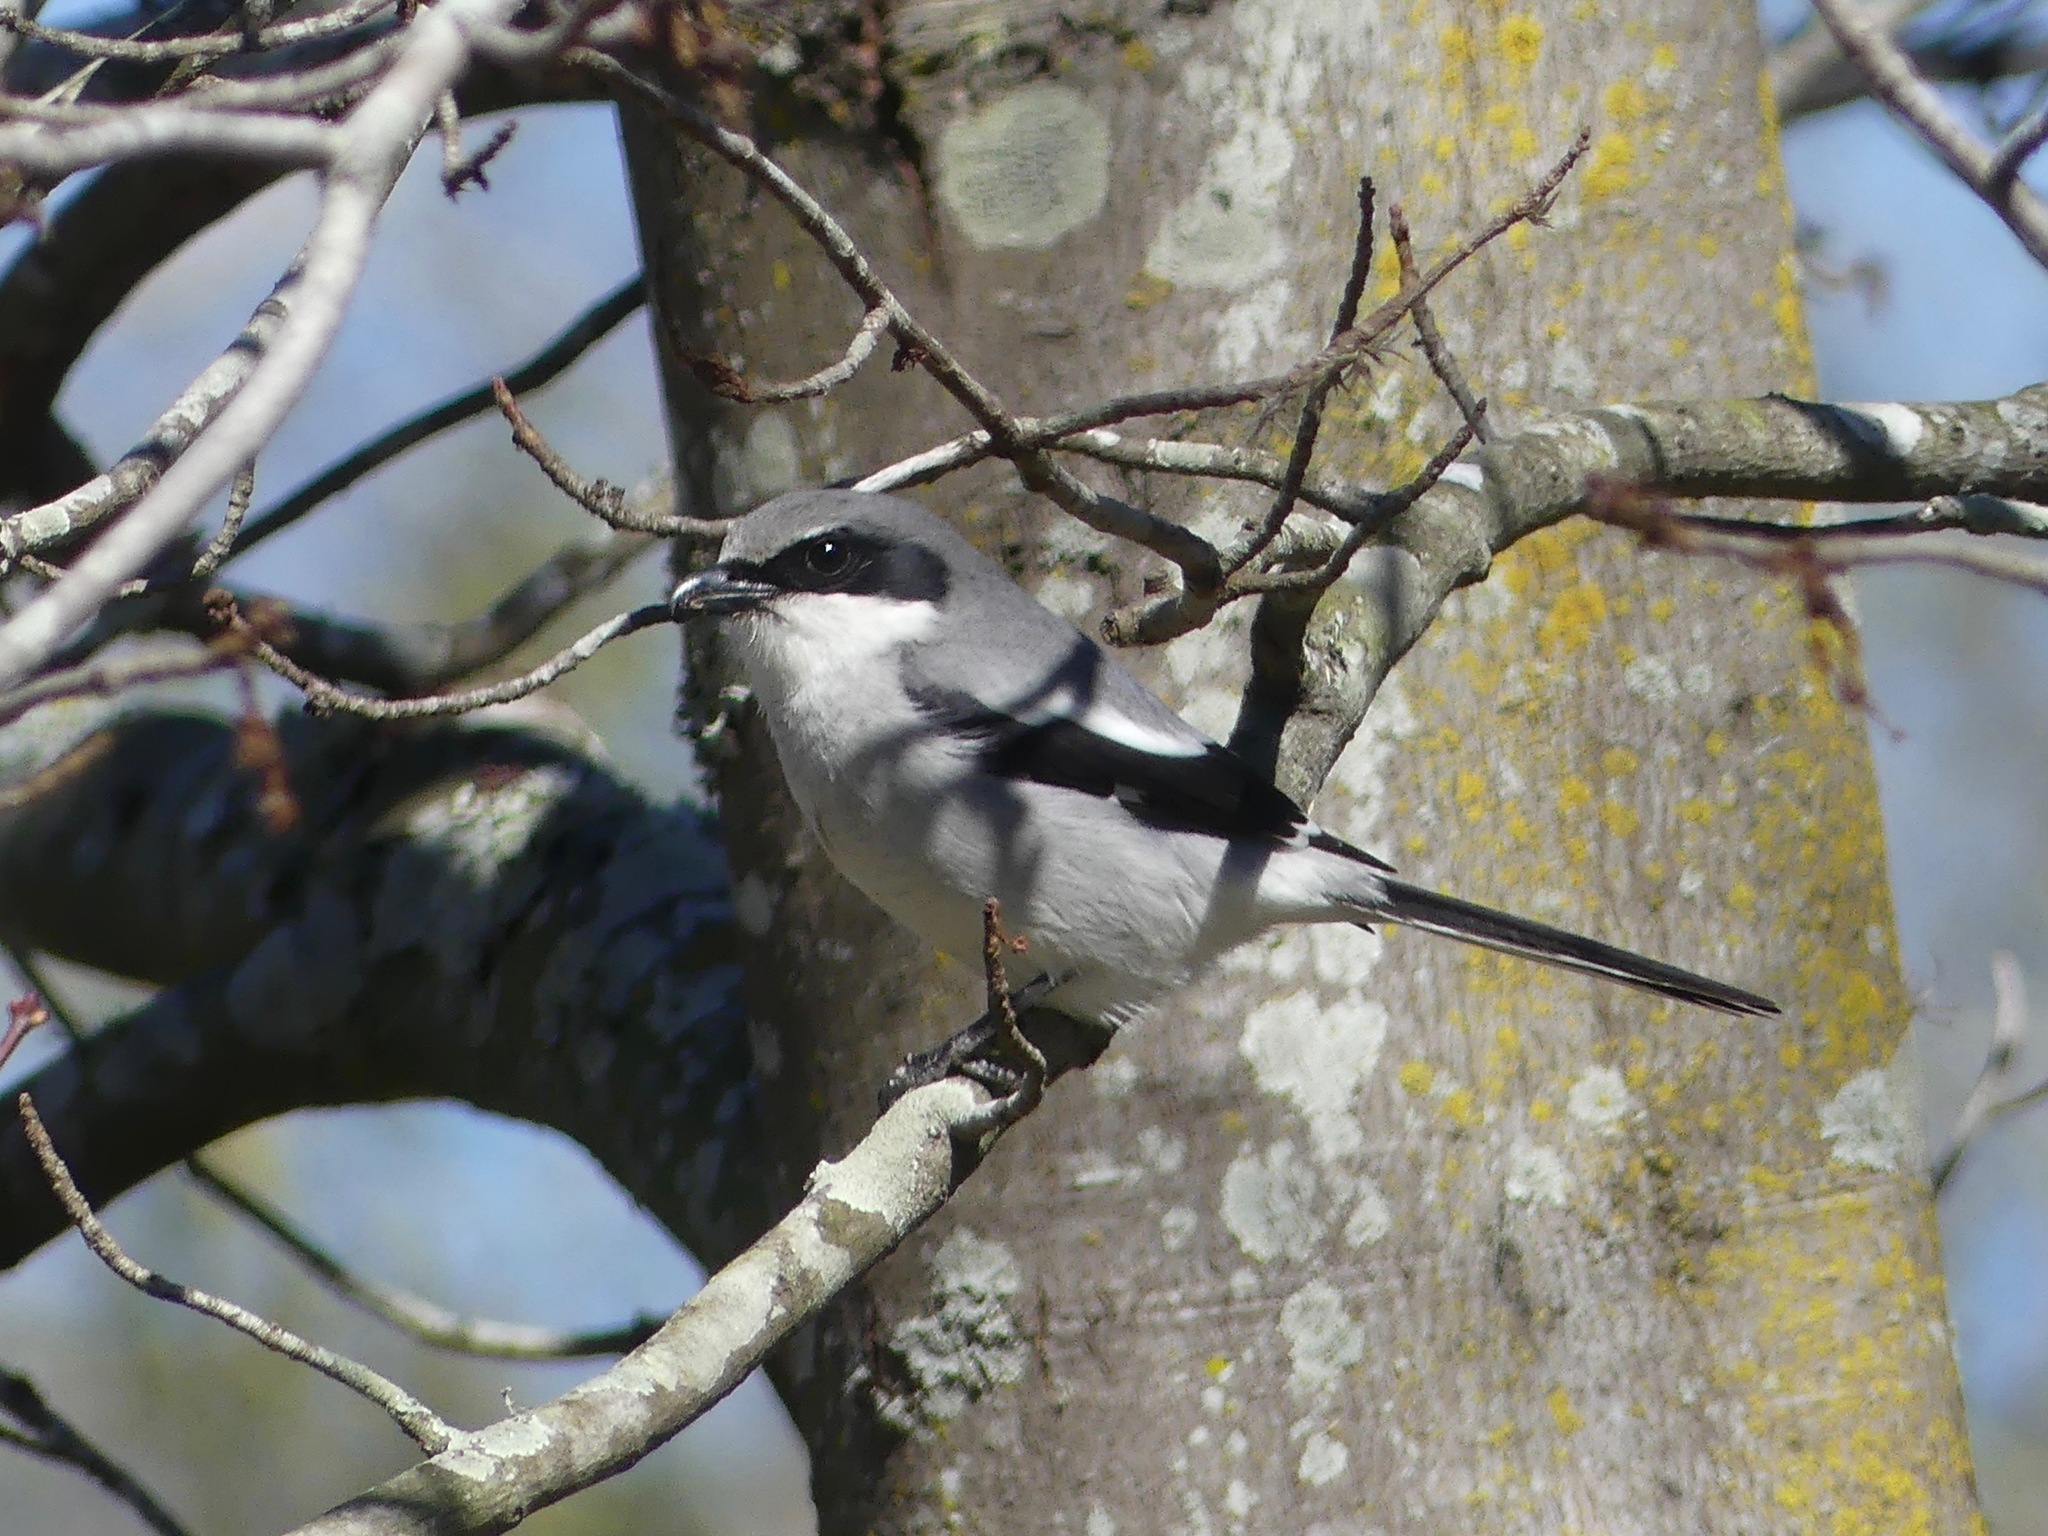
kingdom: Animalia
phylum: Chordata
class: Aves
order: Passeriformes
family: Laniidae
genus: Lanius
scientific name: Lanius ludovicianus
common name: Loggerhead shrike
